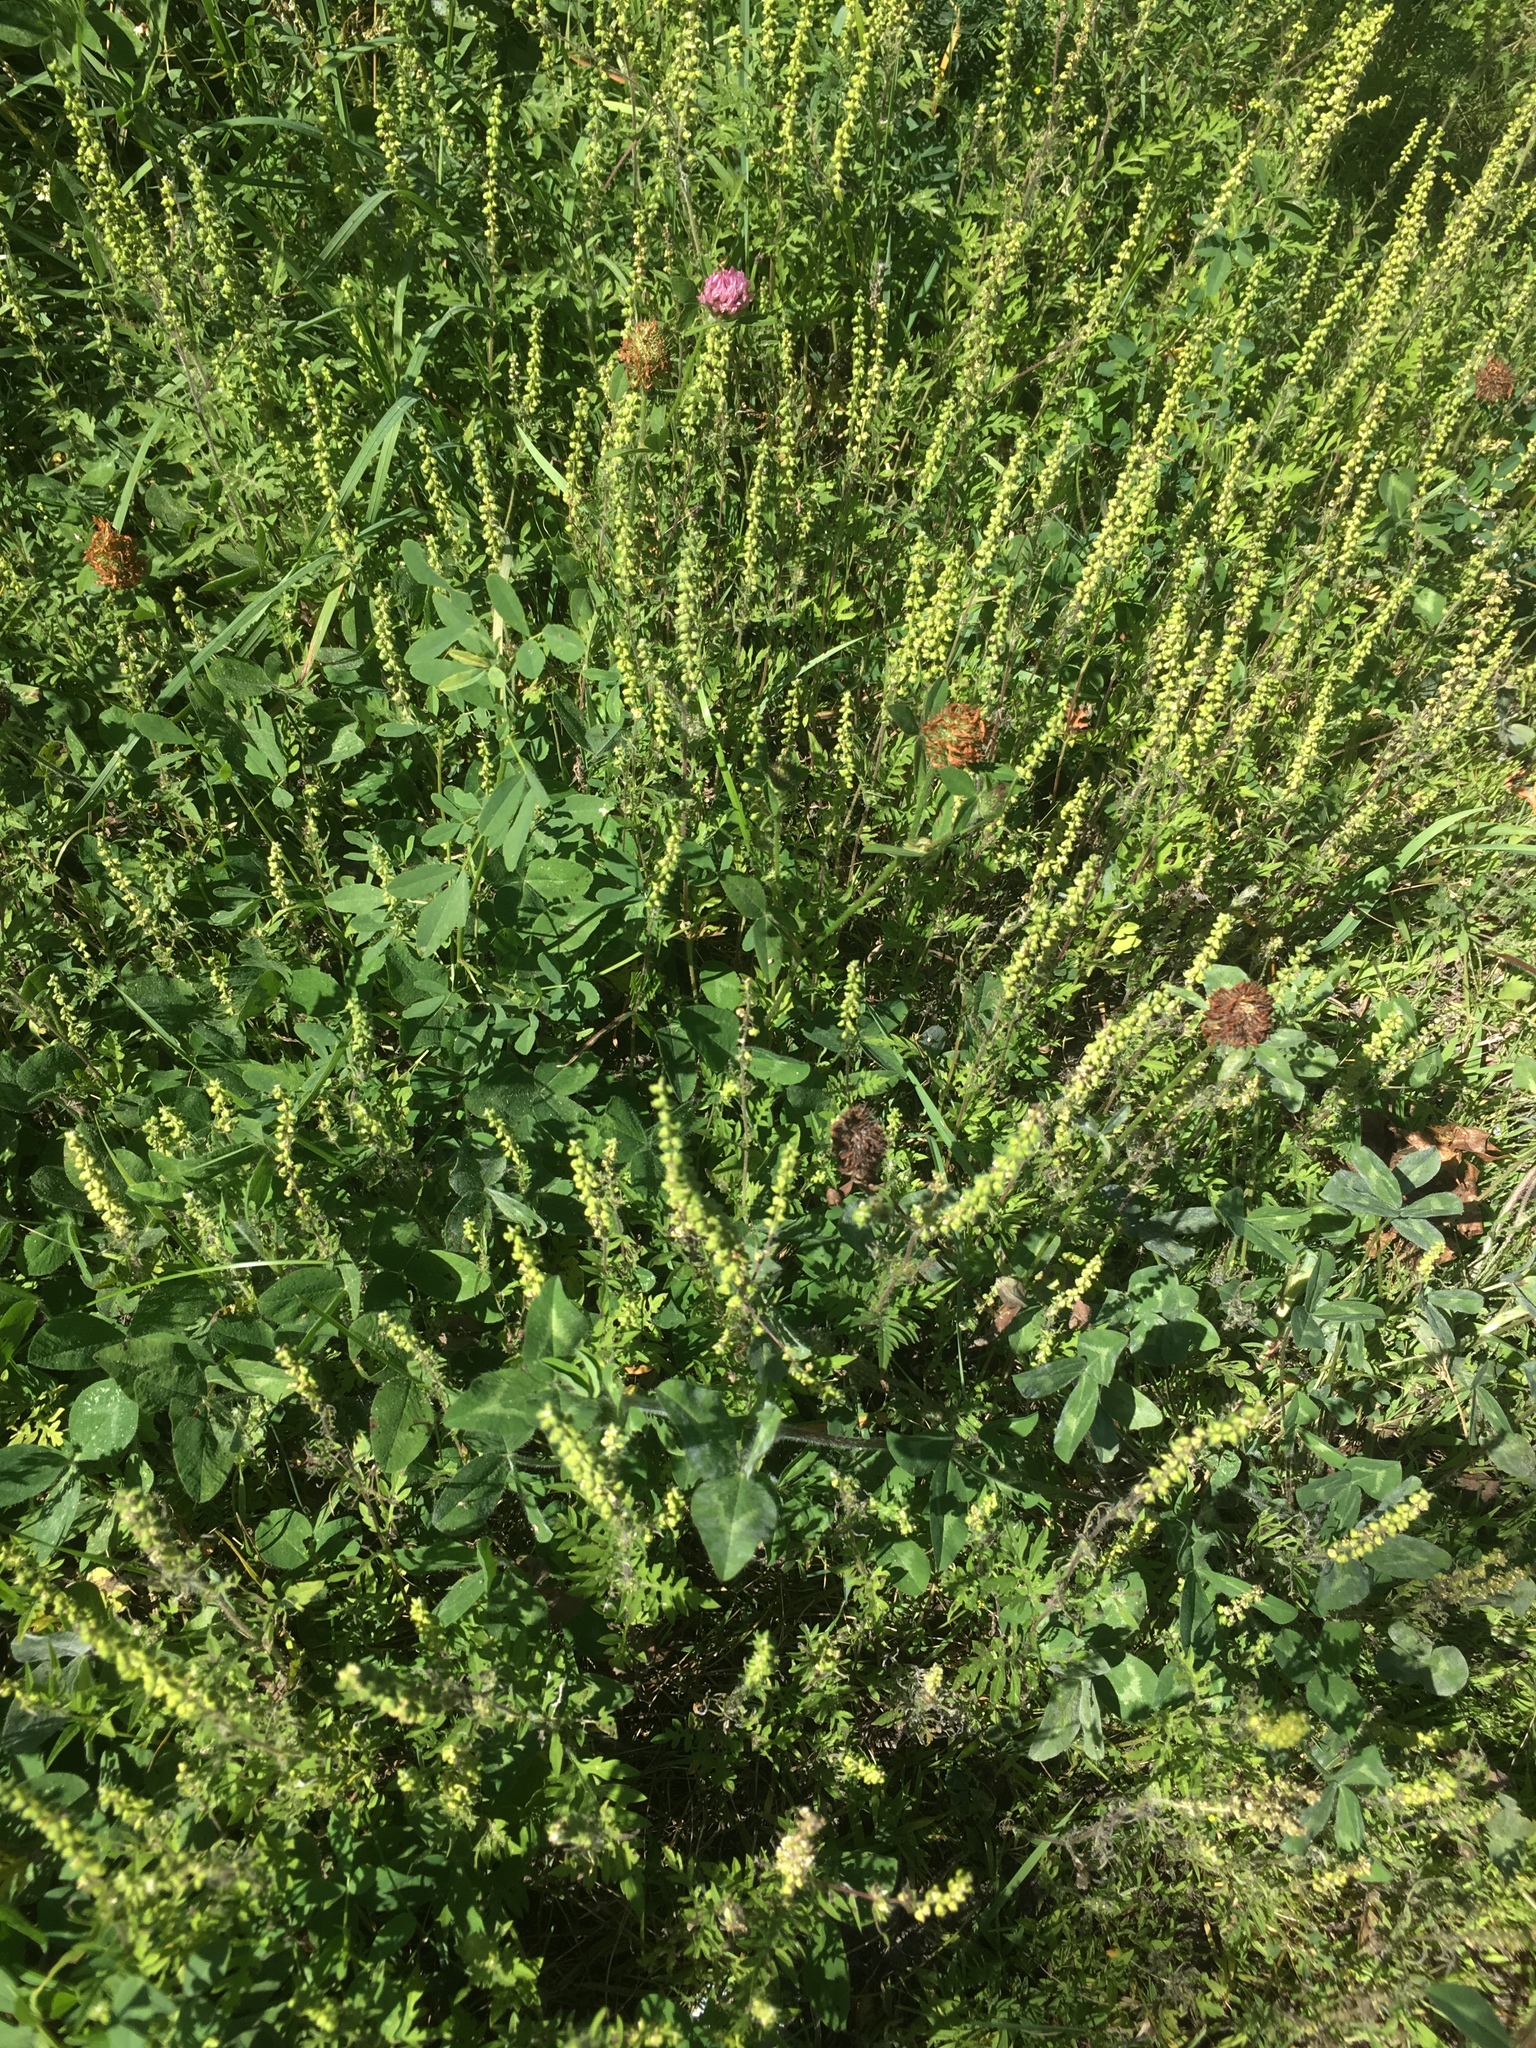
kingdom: Plantae
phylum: Tracheophyta
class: Magnoliopsida
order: Asterales
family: Asteraceae
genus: Ambrosia
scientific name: Ambrosia artemisiifolia
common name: Annual ragweed
